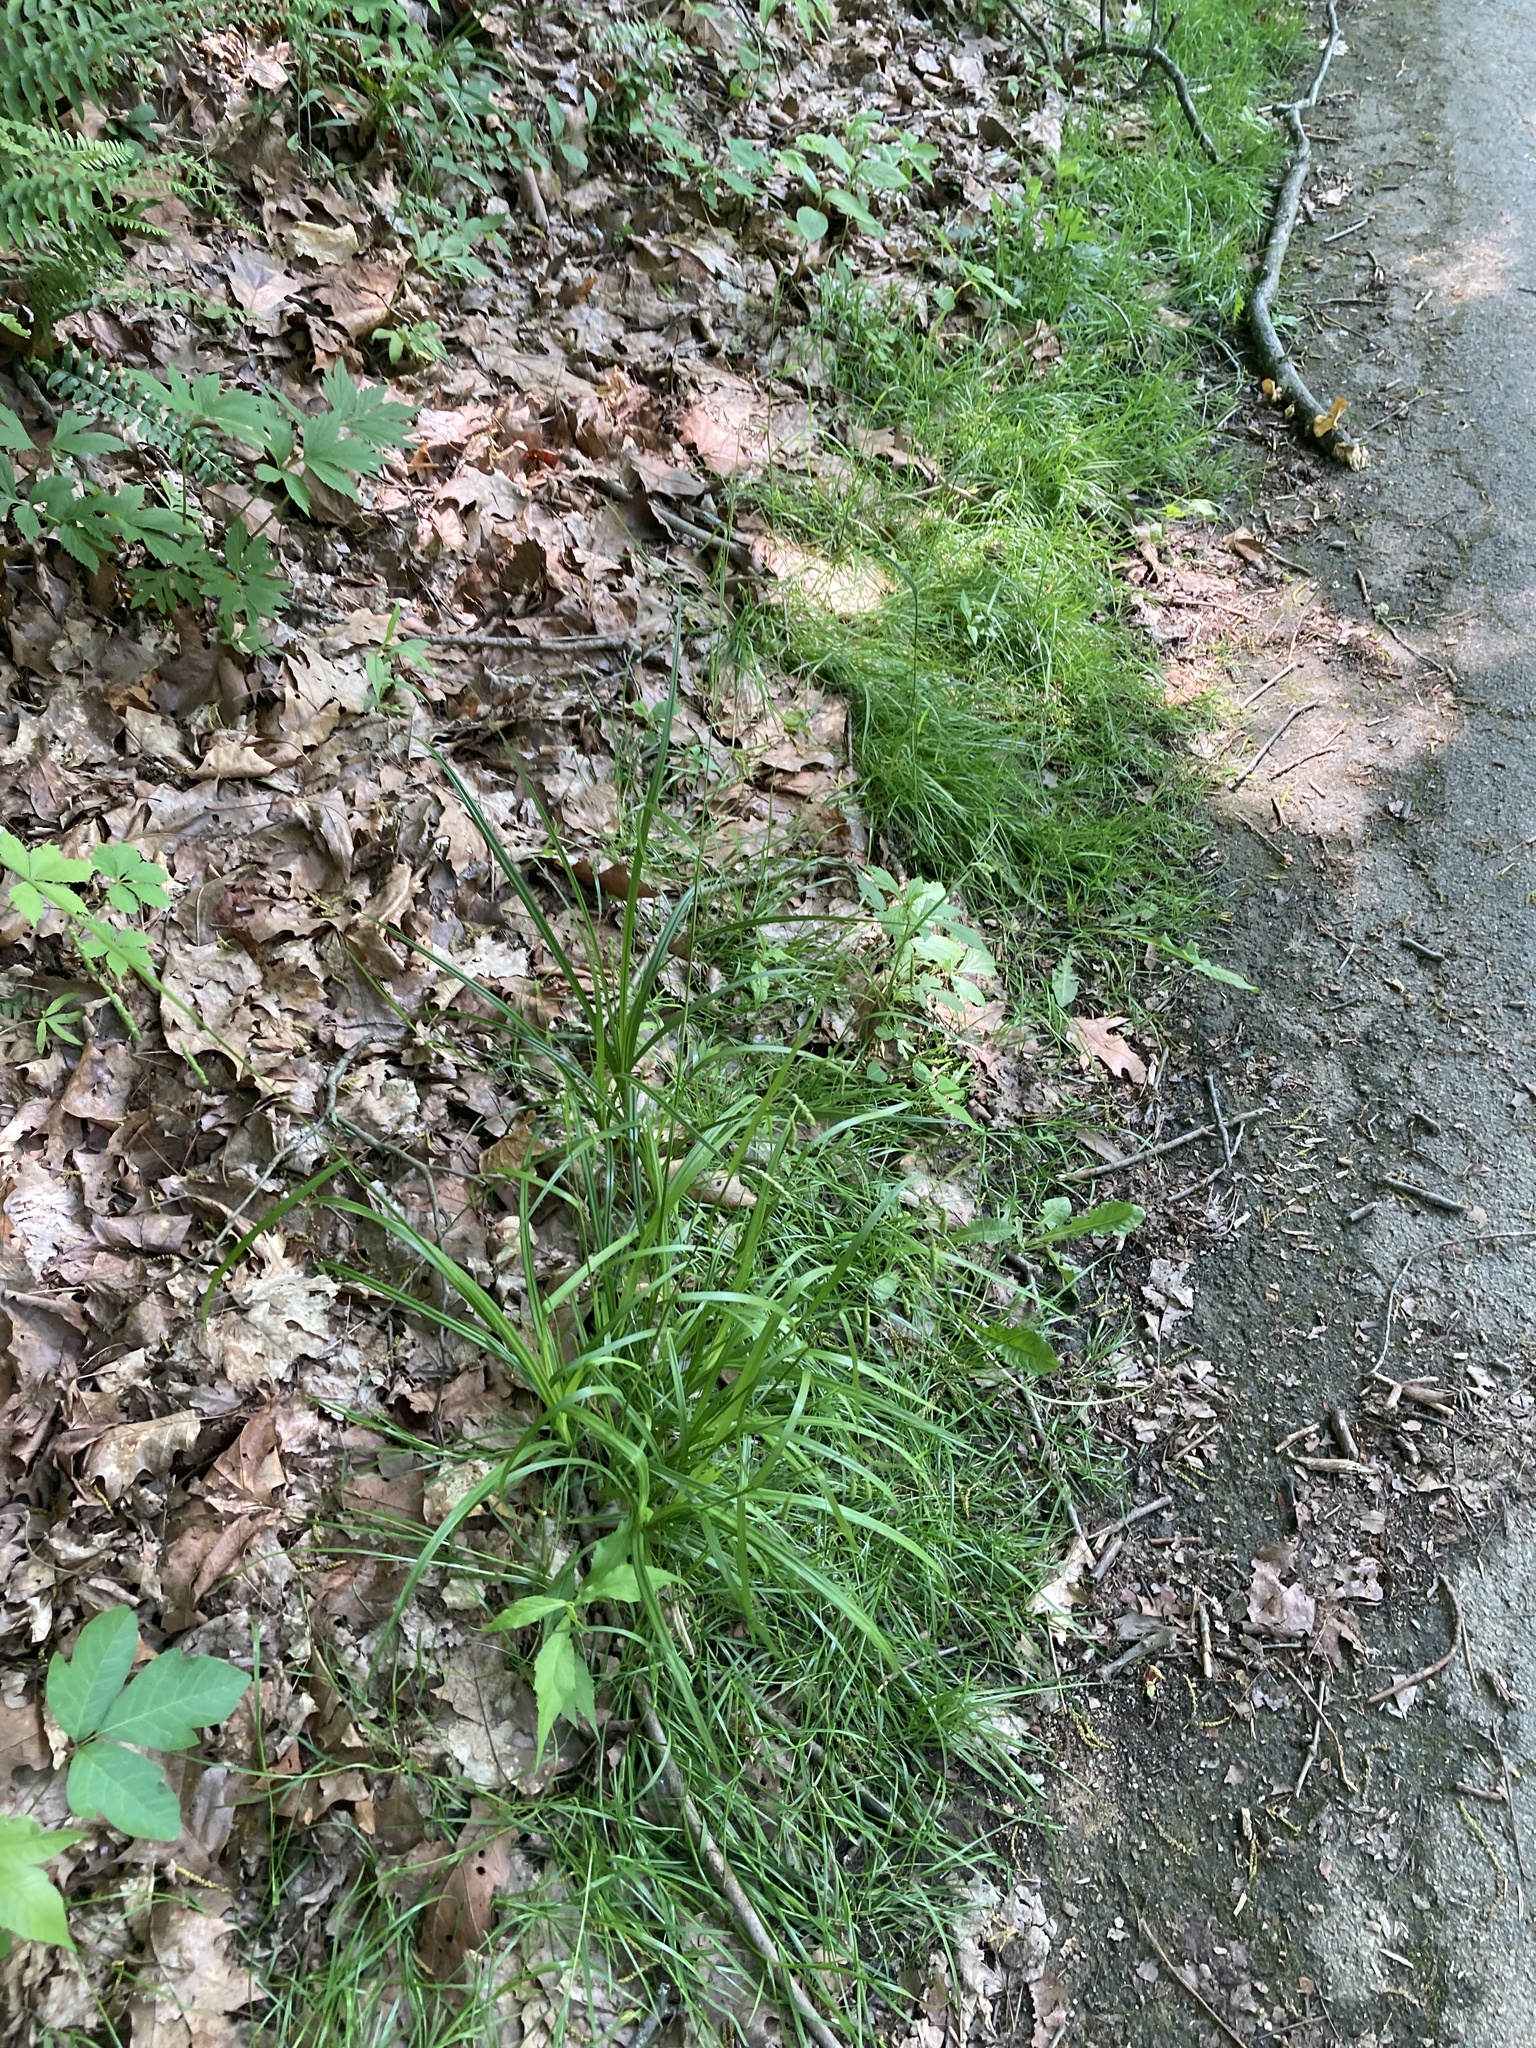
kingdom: Plantae
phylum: Tracheophyta
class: Liliopsida
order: Poales
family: Cyperaceae
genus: Carex
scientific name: Carex gracillima
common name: Graceful sedge
